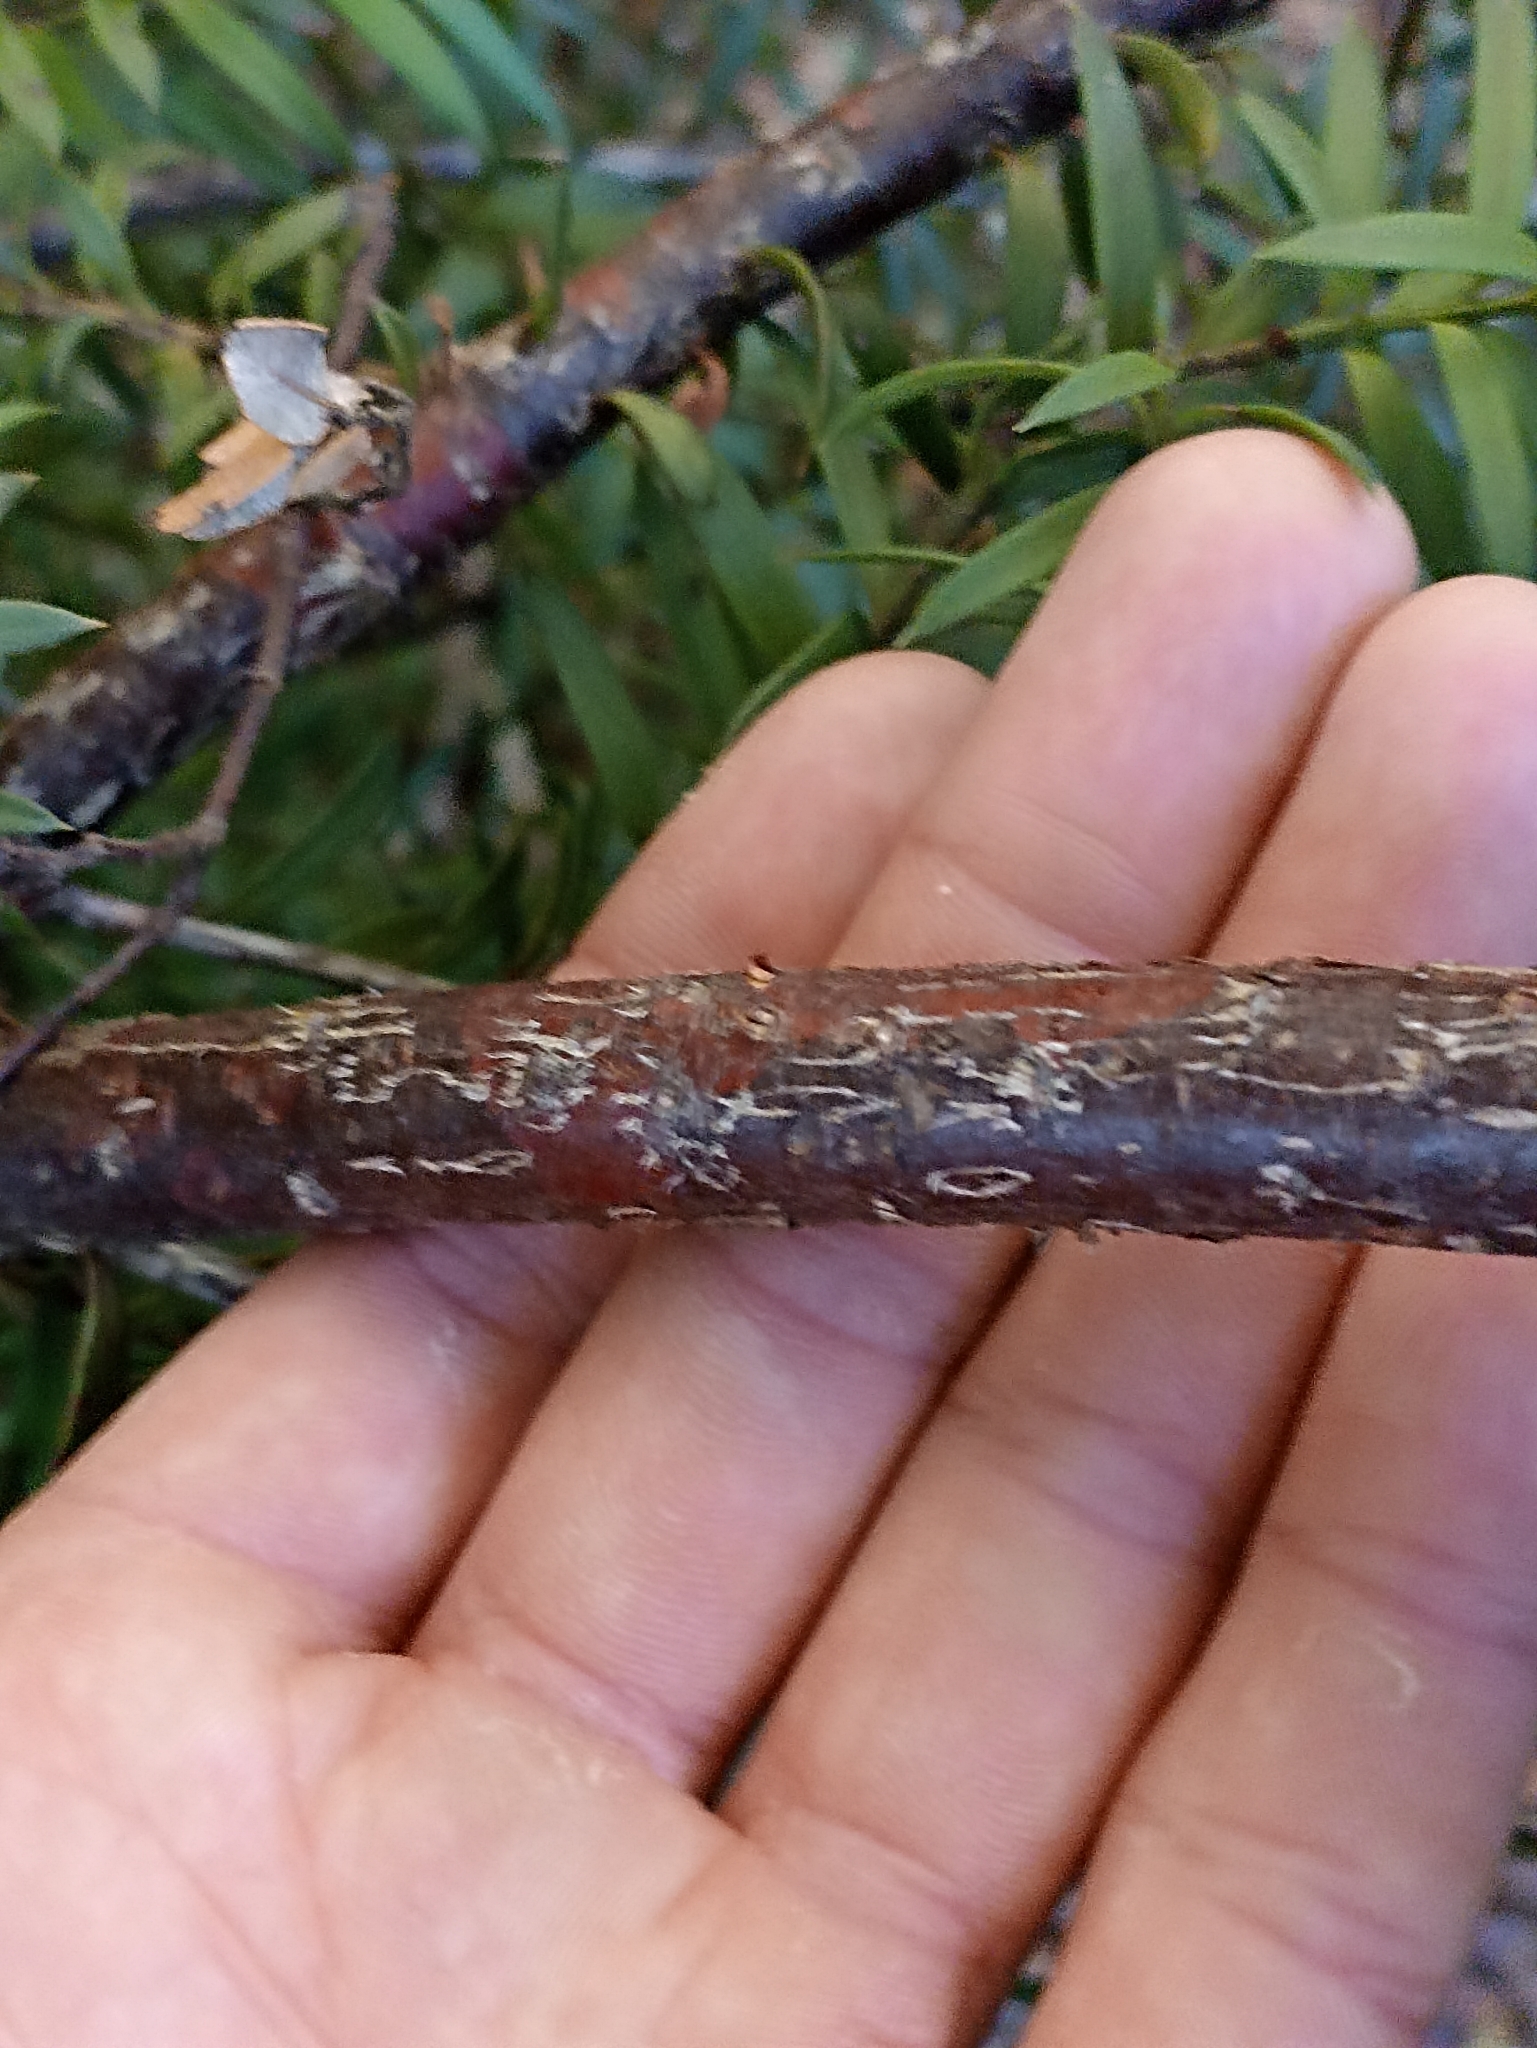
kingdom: Plantae
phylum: Tracheophyta
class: Pinopsida
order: Pinales
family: Podocarpaceae
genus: Podocarpus
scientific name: Podocarpus laetus
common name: Hall's totara
